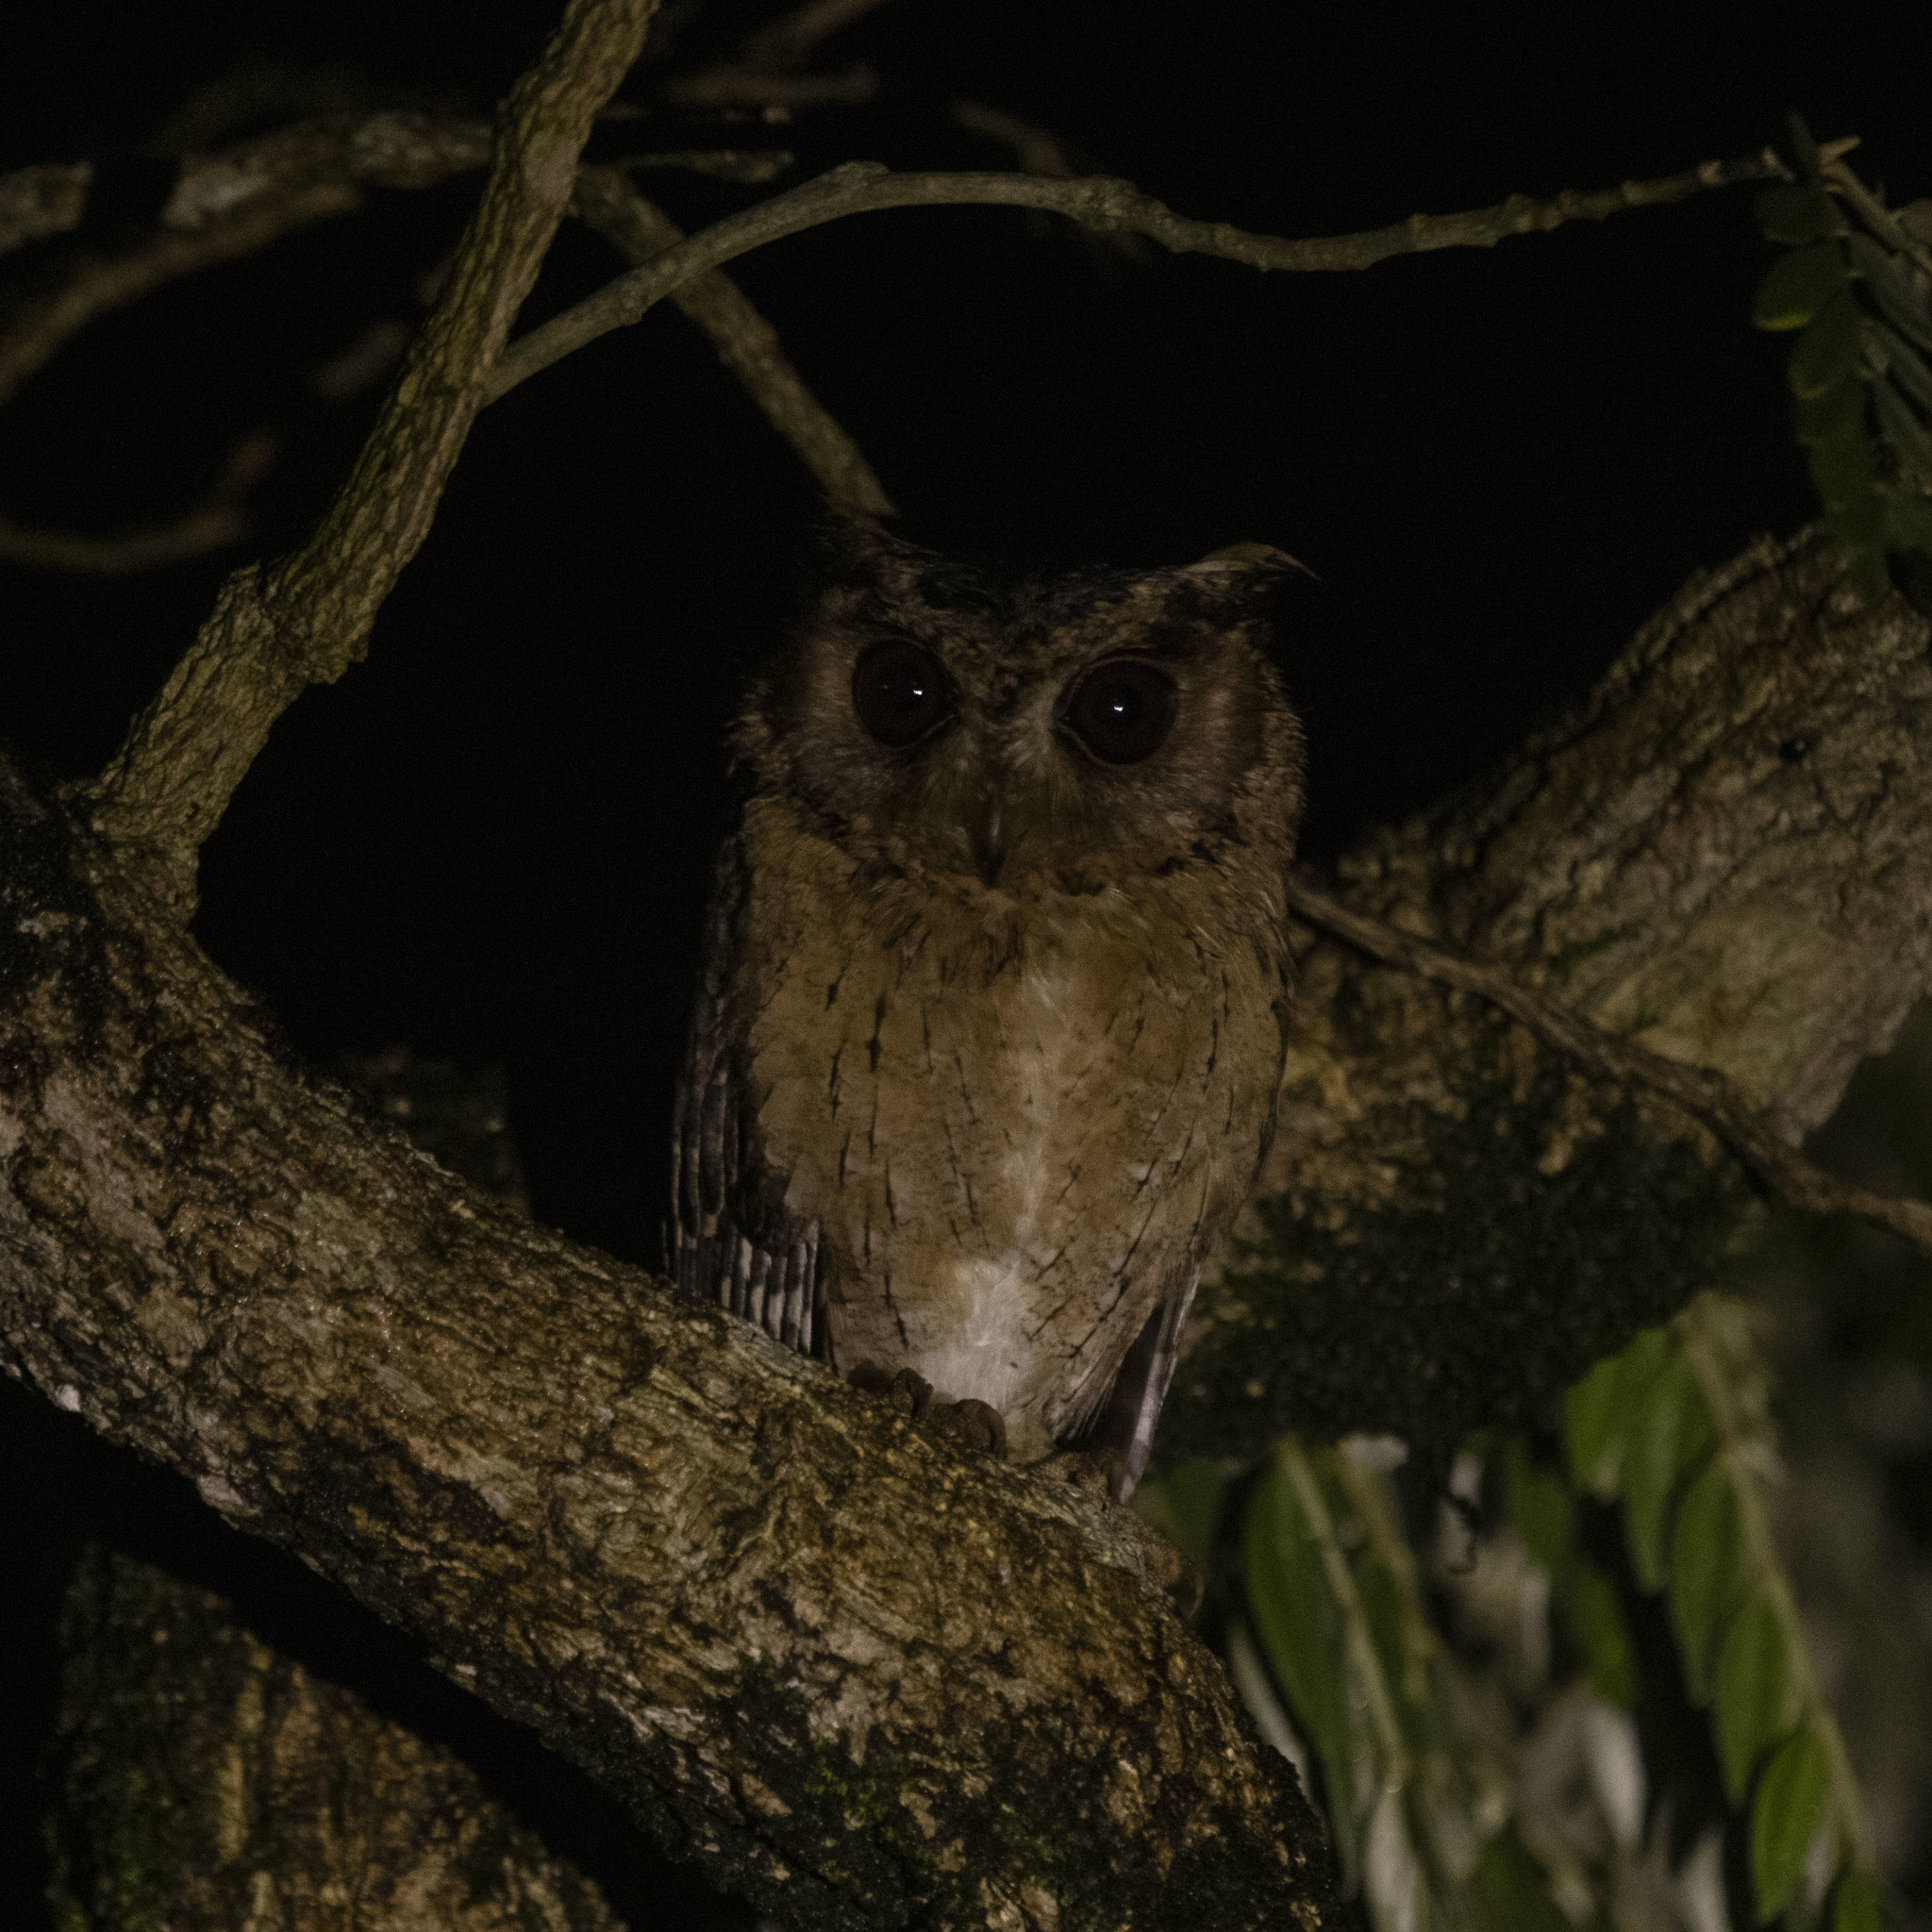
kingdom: Animalia
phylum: Chordata
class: Aves
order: Strigiformes
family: Strigidae
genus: Otus
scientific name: Otus bakkamoena
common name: Indian scops owl
